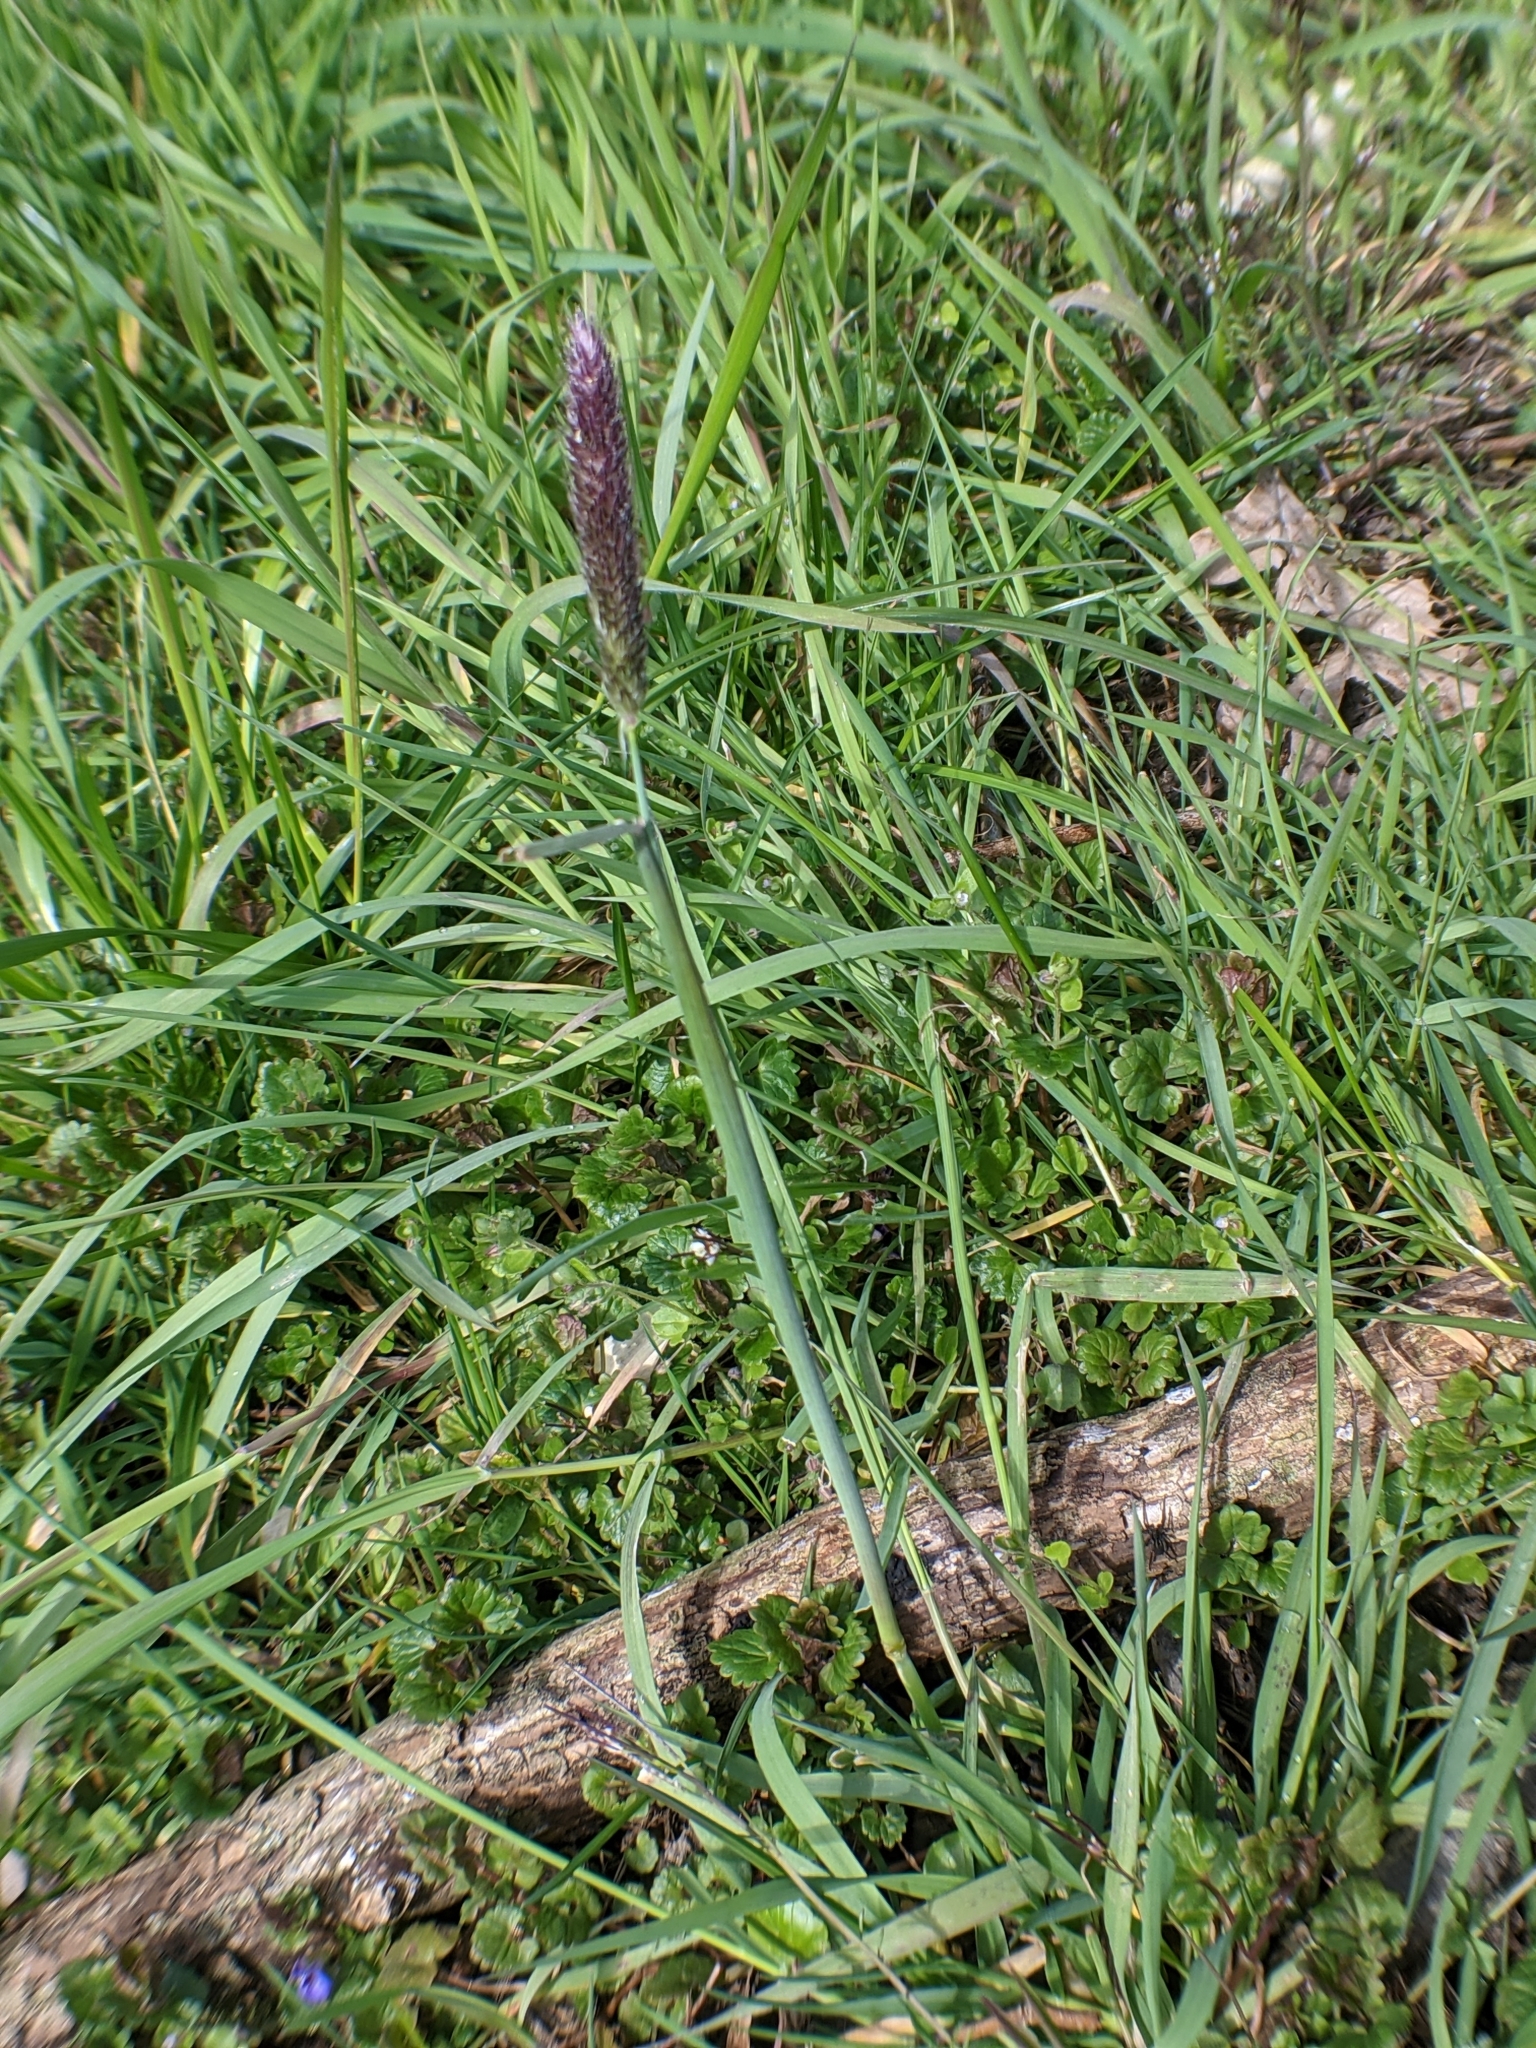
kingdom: Plantae
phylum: Tracheophyta
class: Liliopsida
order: Poales
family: Poaceae
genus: Alopecurus
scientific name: Alopecurus pratensis
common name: Meadow foxtail
